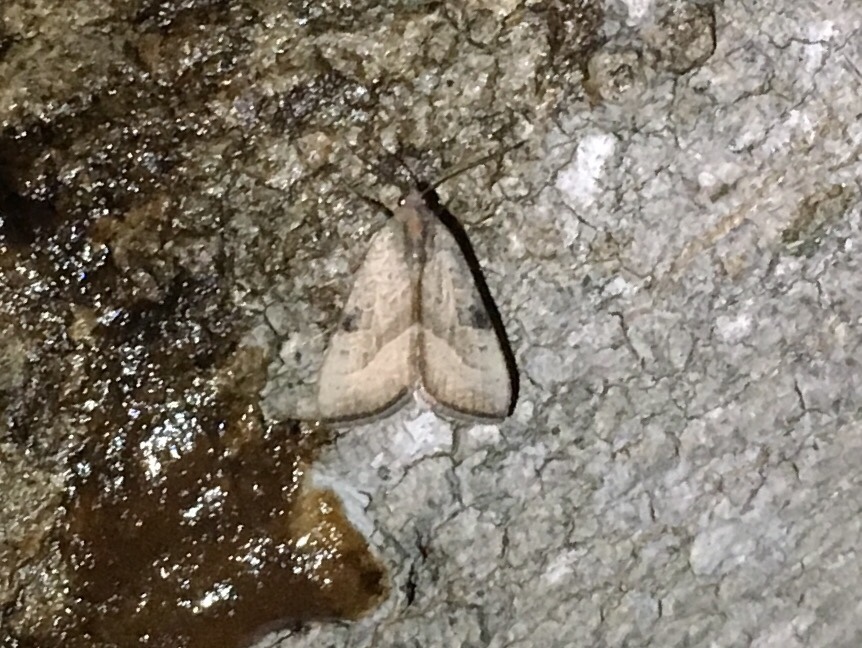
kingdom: Animalia
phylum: Arthropoda
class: Insecta
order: Lepidoptera
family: Noctuidae
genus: Galgula
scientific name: Galgula partita
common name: Wedgeling
